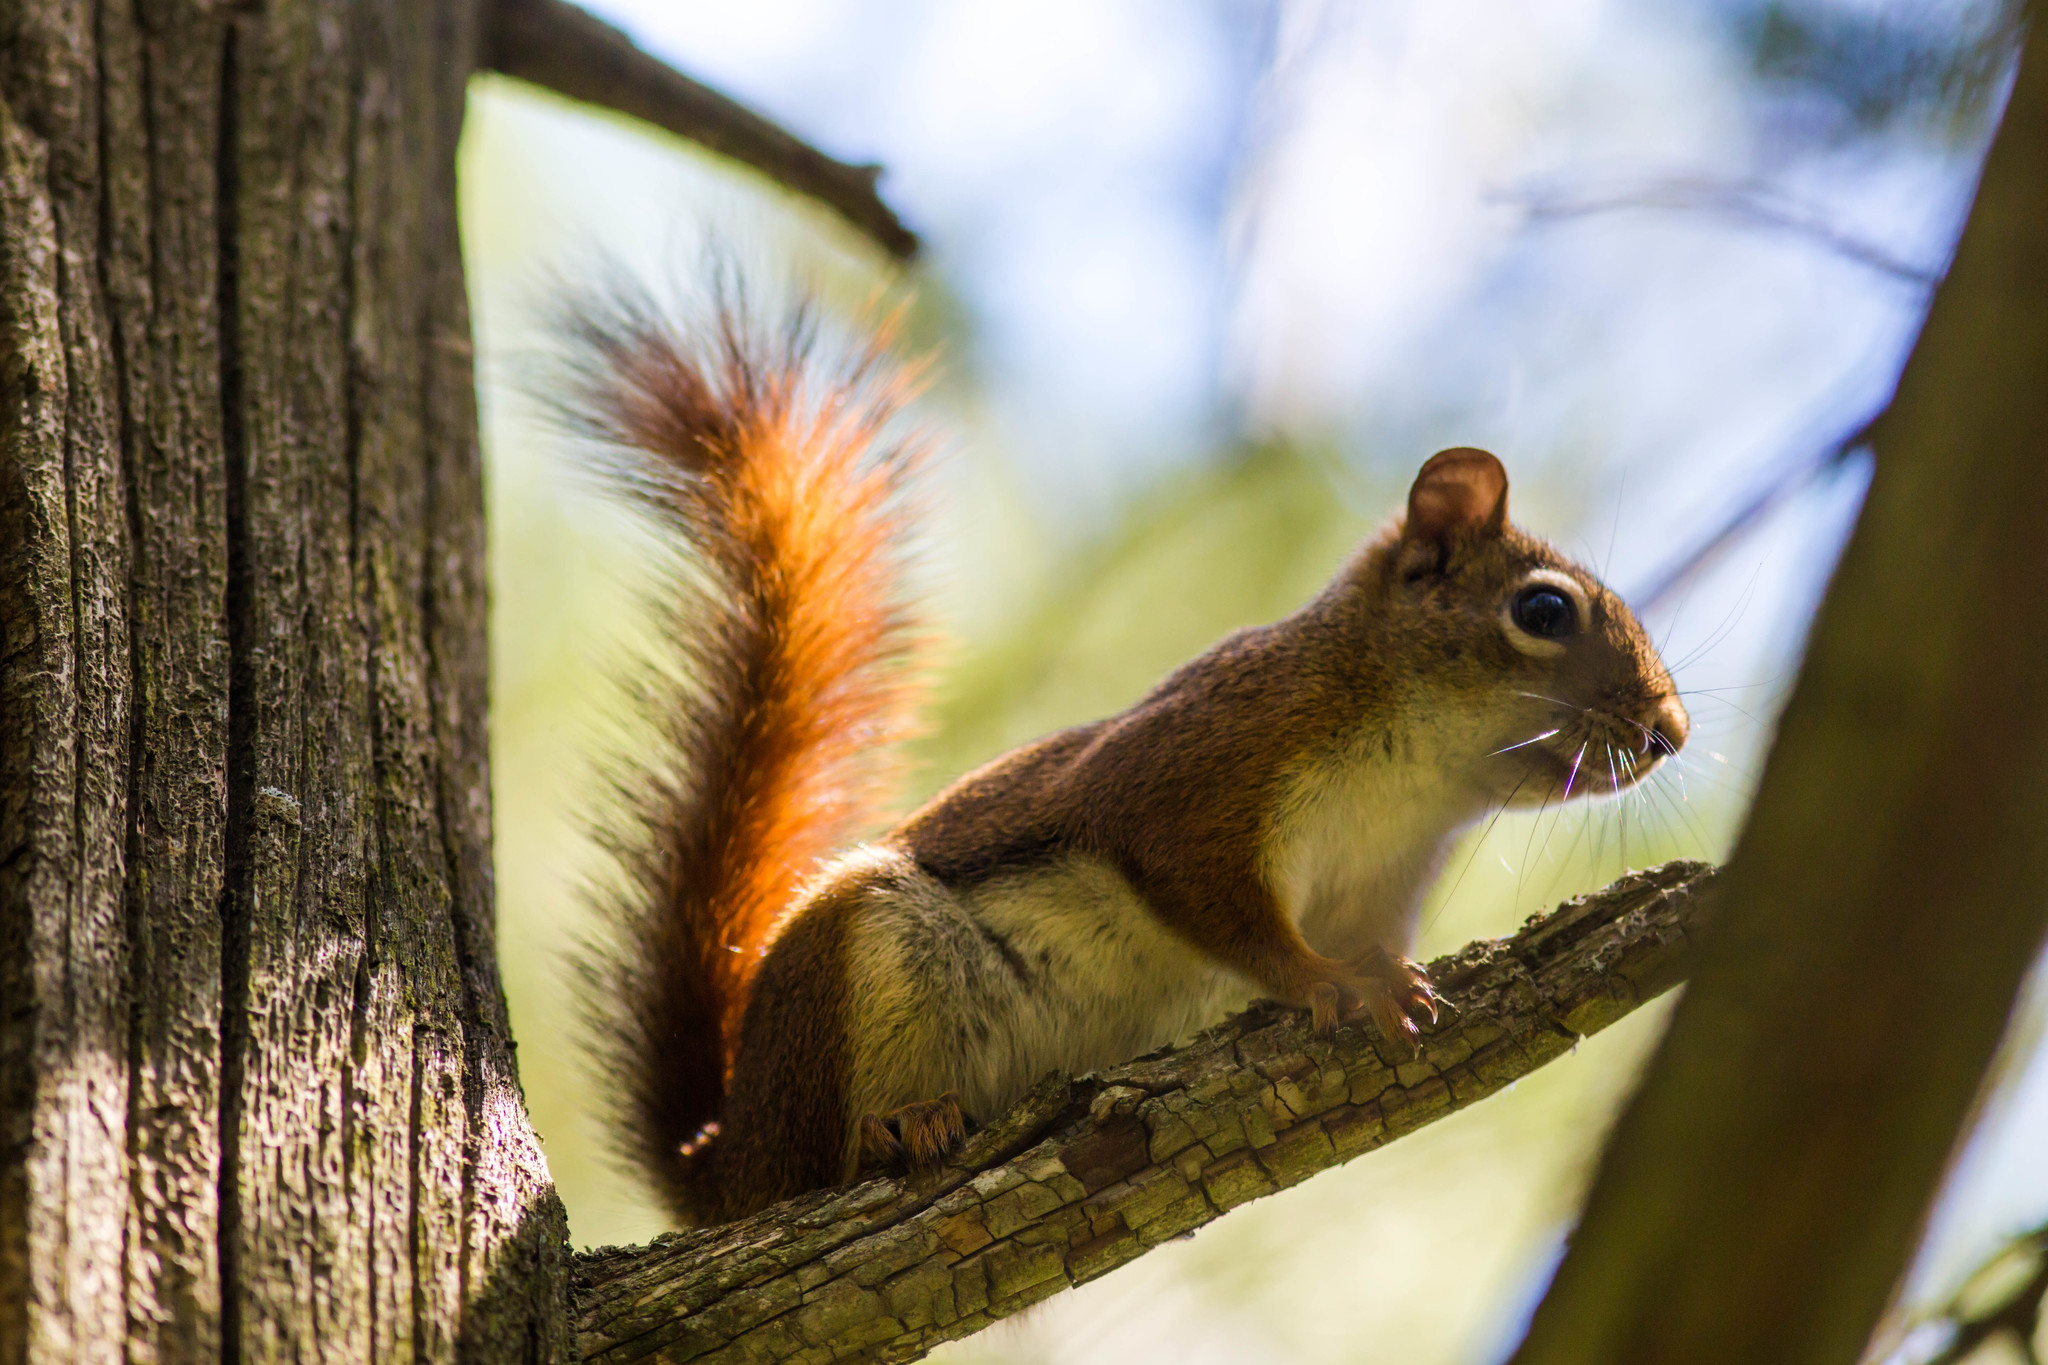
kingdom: Animalia
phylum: Chordata
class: Mammalia
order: Rodentia
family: Sciuridae
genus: Tamiasciurus
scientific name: Tamiasciurus hudsonicus
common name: Red squirrel
